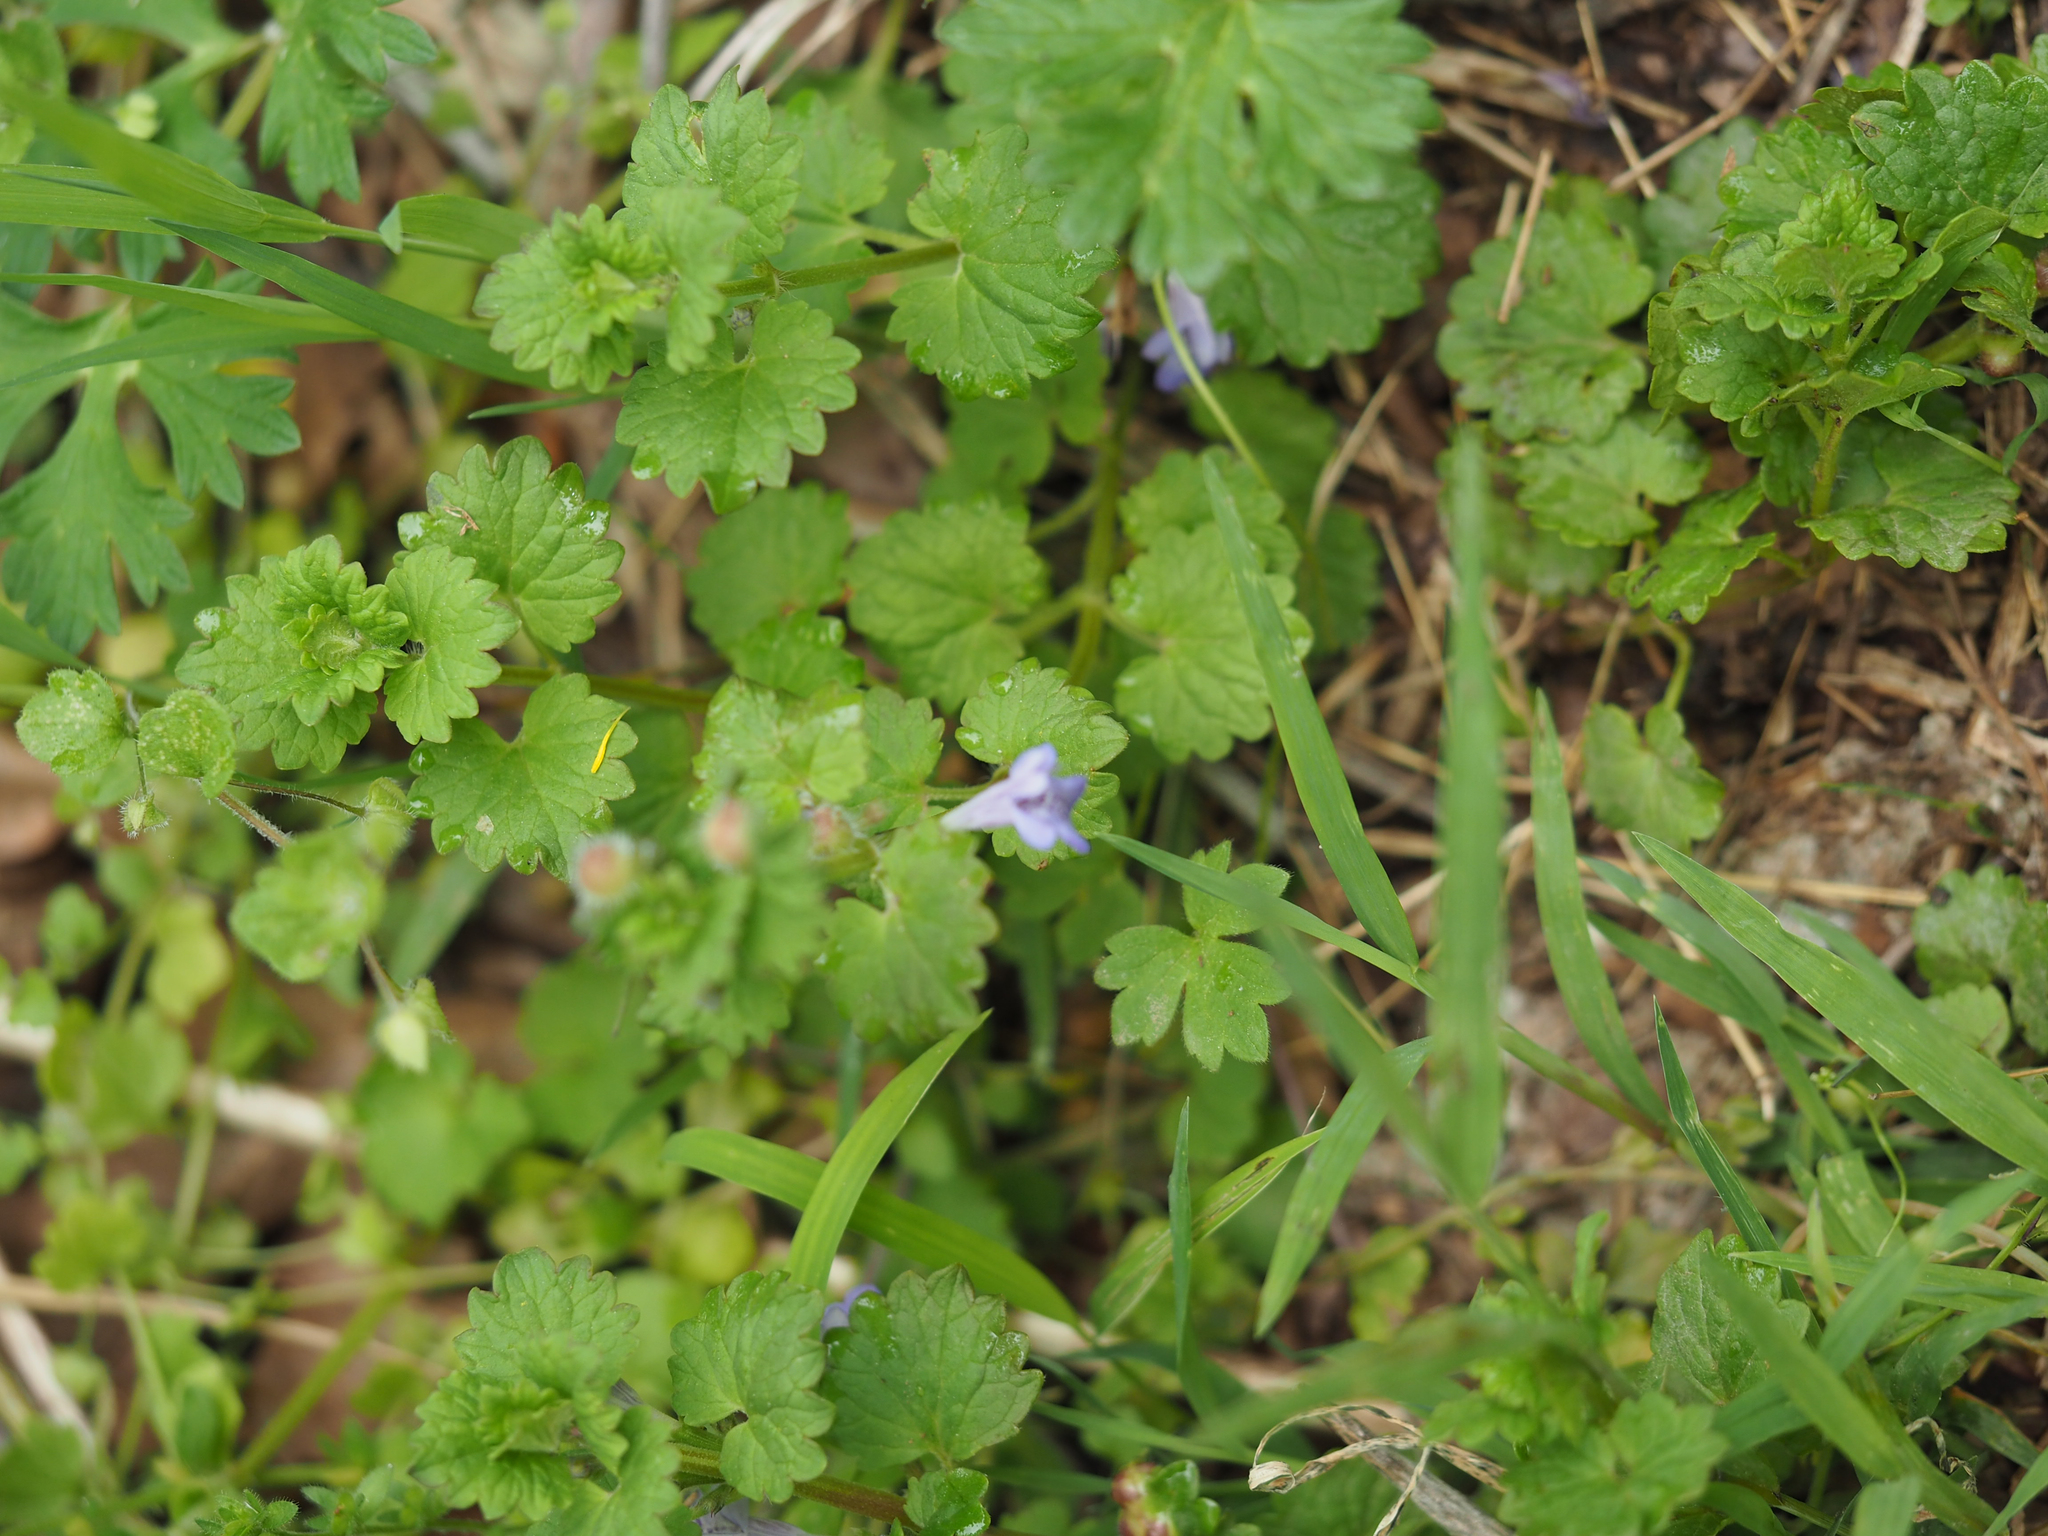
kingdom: Plantae
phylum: Tracheophyta
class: Magnoliopsida
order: Lamiales
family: Lamiaceae
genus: Glechoma
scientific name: Glechoma hederacea
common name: Ground ivy
